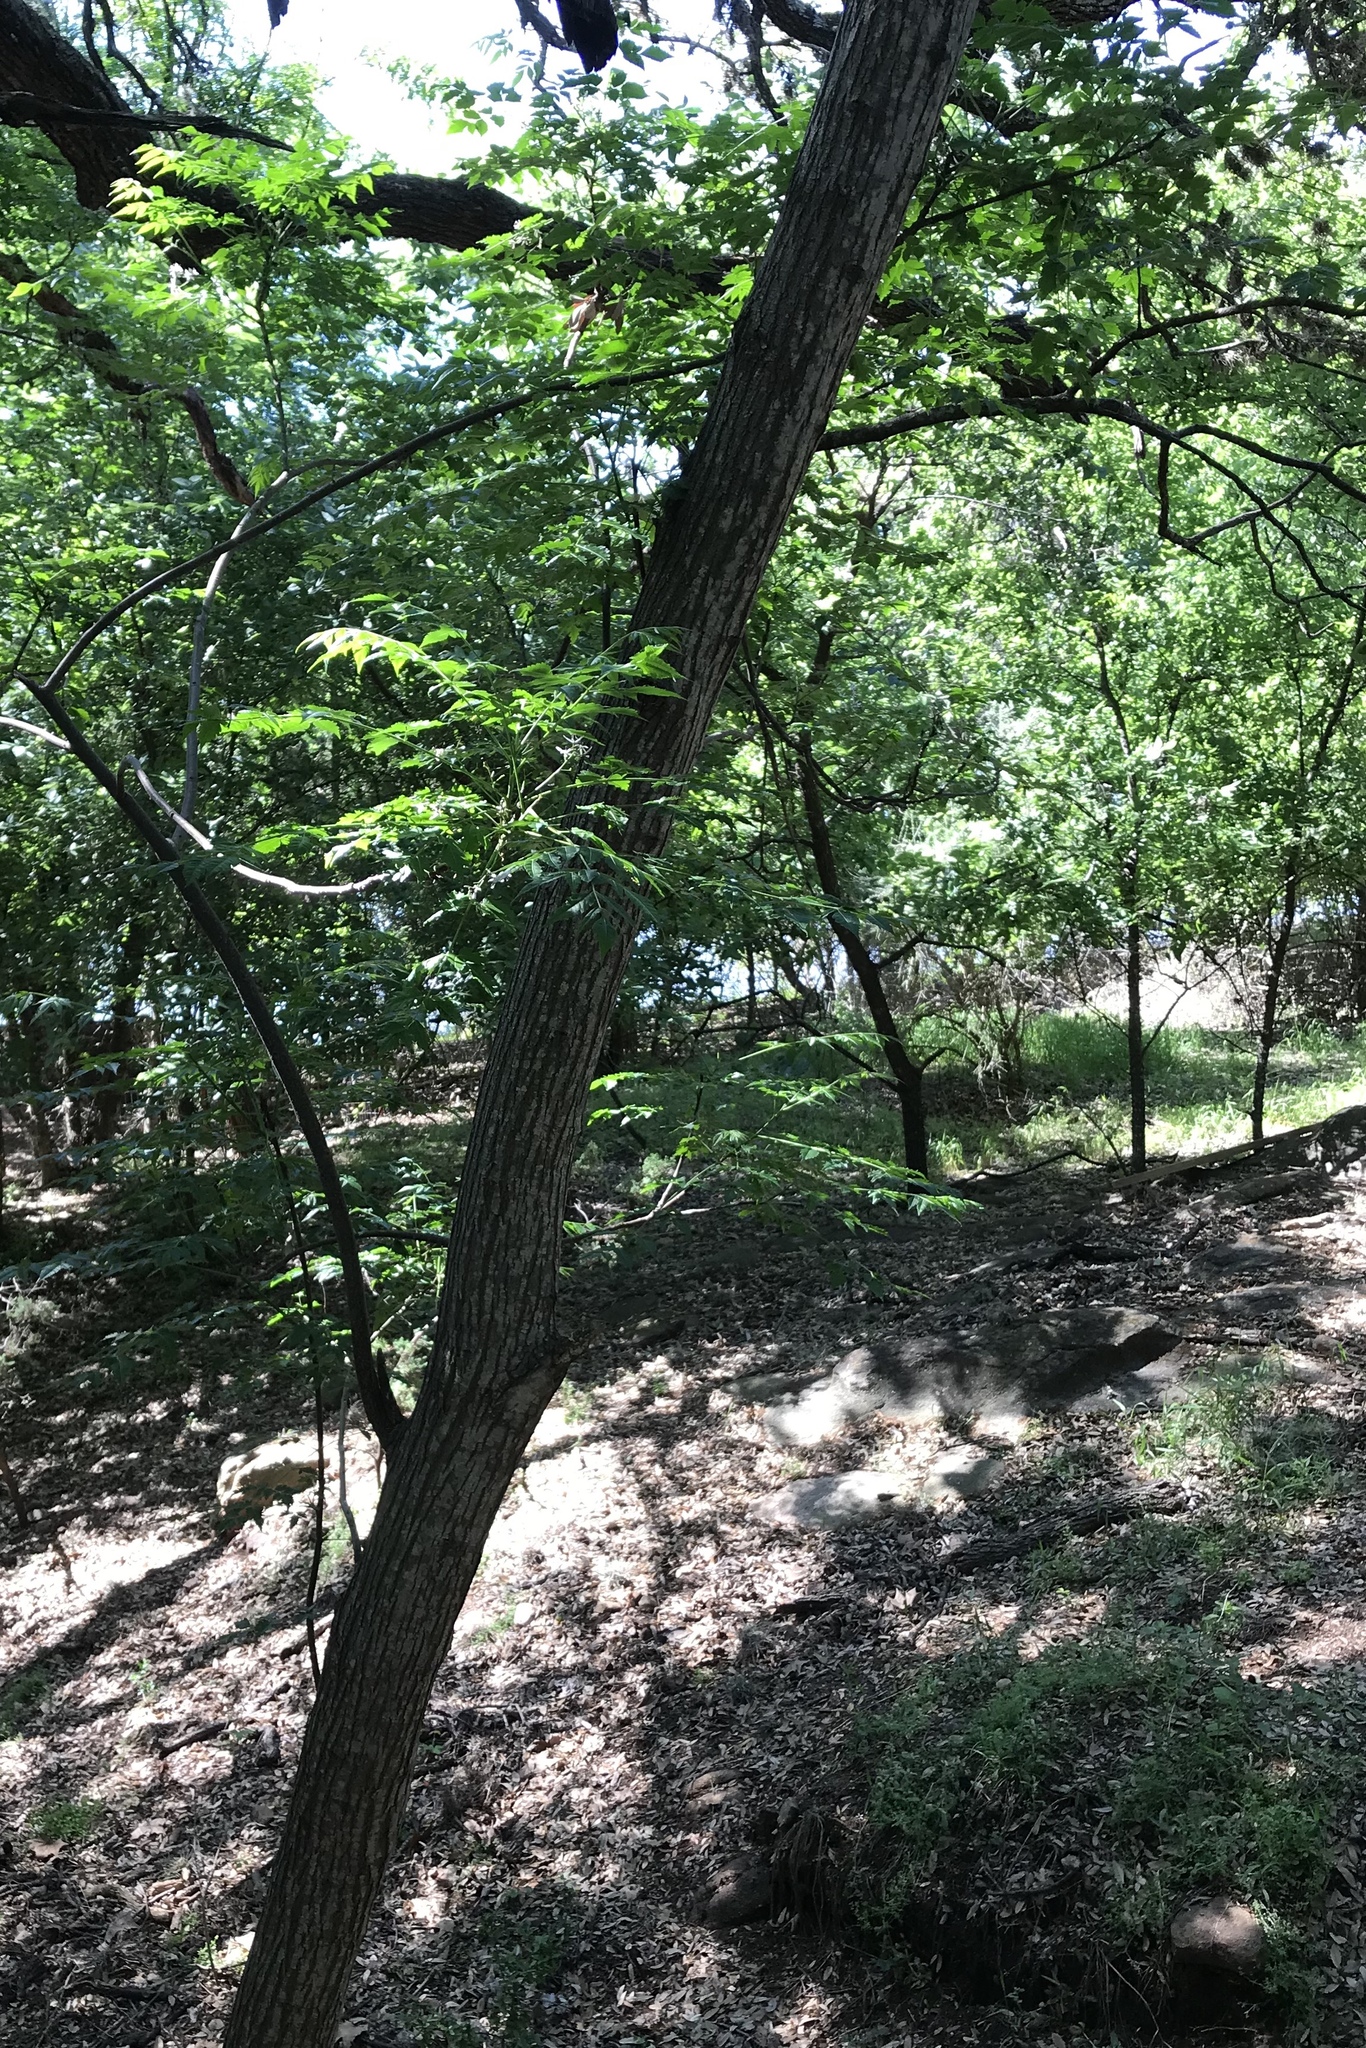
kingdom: Plantae
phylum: Tracheophyta
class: Magnoliopsida
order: Sapindales
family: Meliaceae
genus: Melia
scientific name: Melia azedarach
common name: Chinaberrytree
